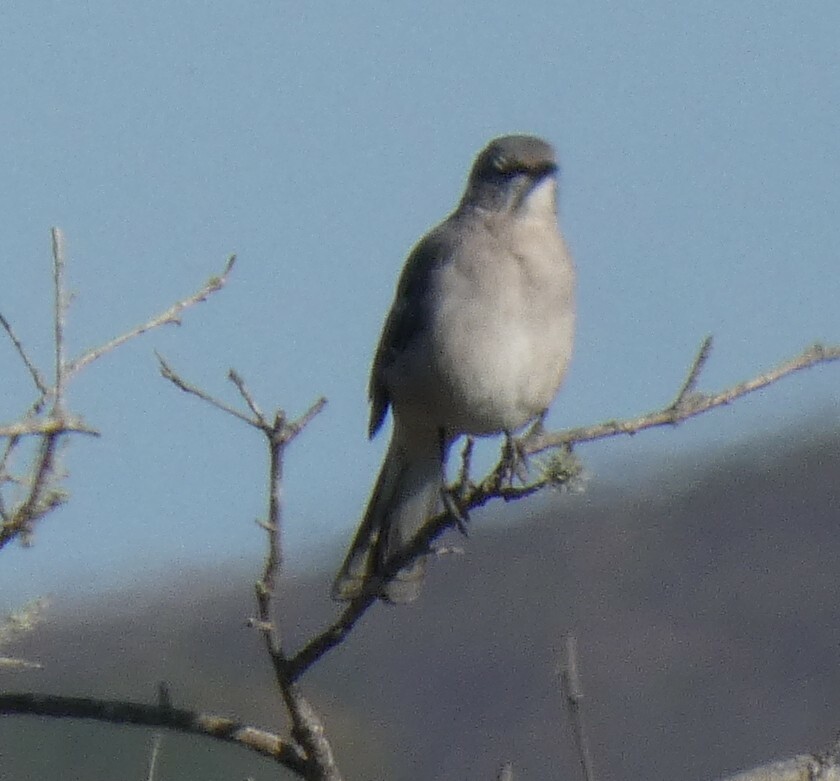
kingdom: Animalia
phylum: Chordata
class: Aves
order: Passeriformes
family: Mimidae
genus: Mimus
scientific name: Mimus polyglottos
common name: Northern mockingbird
